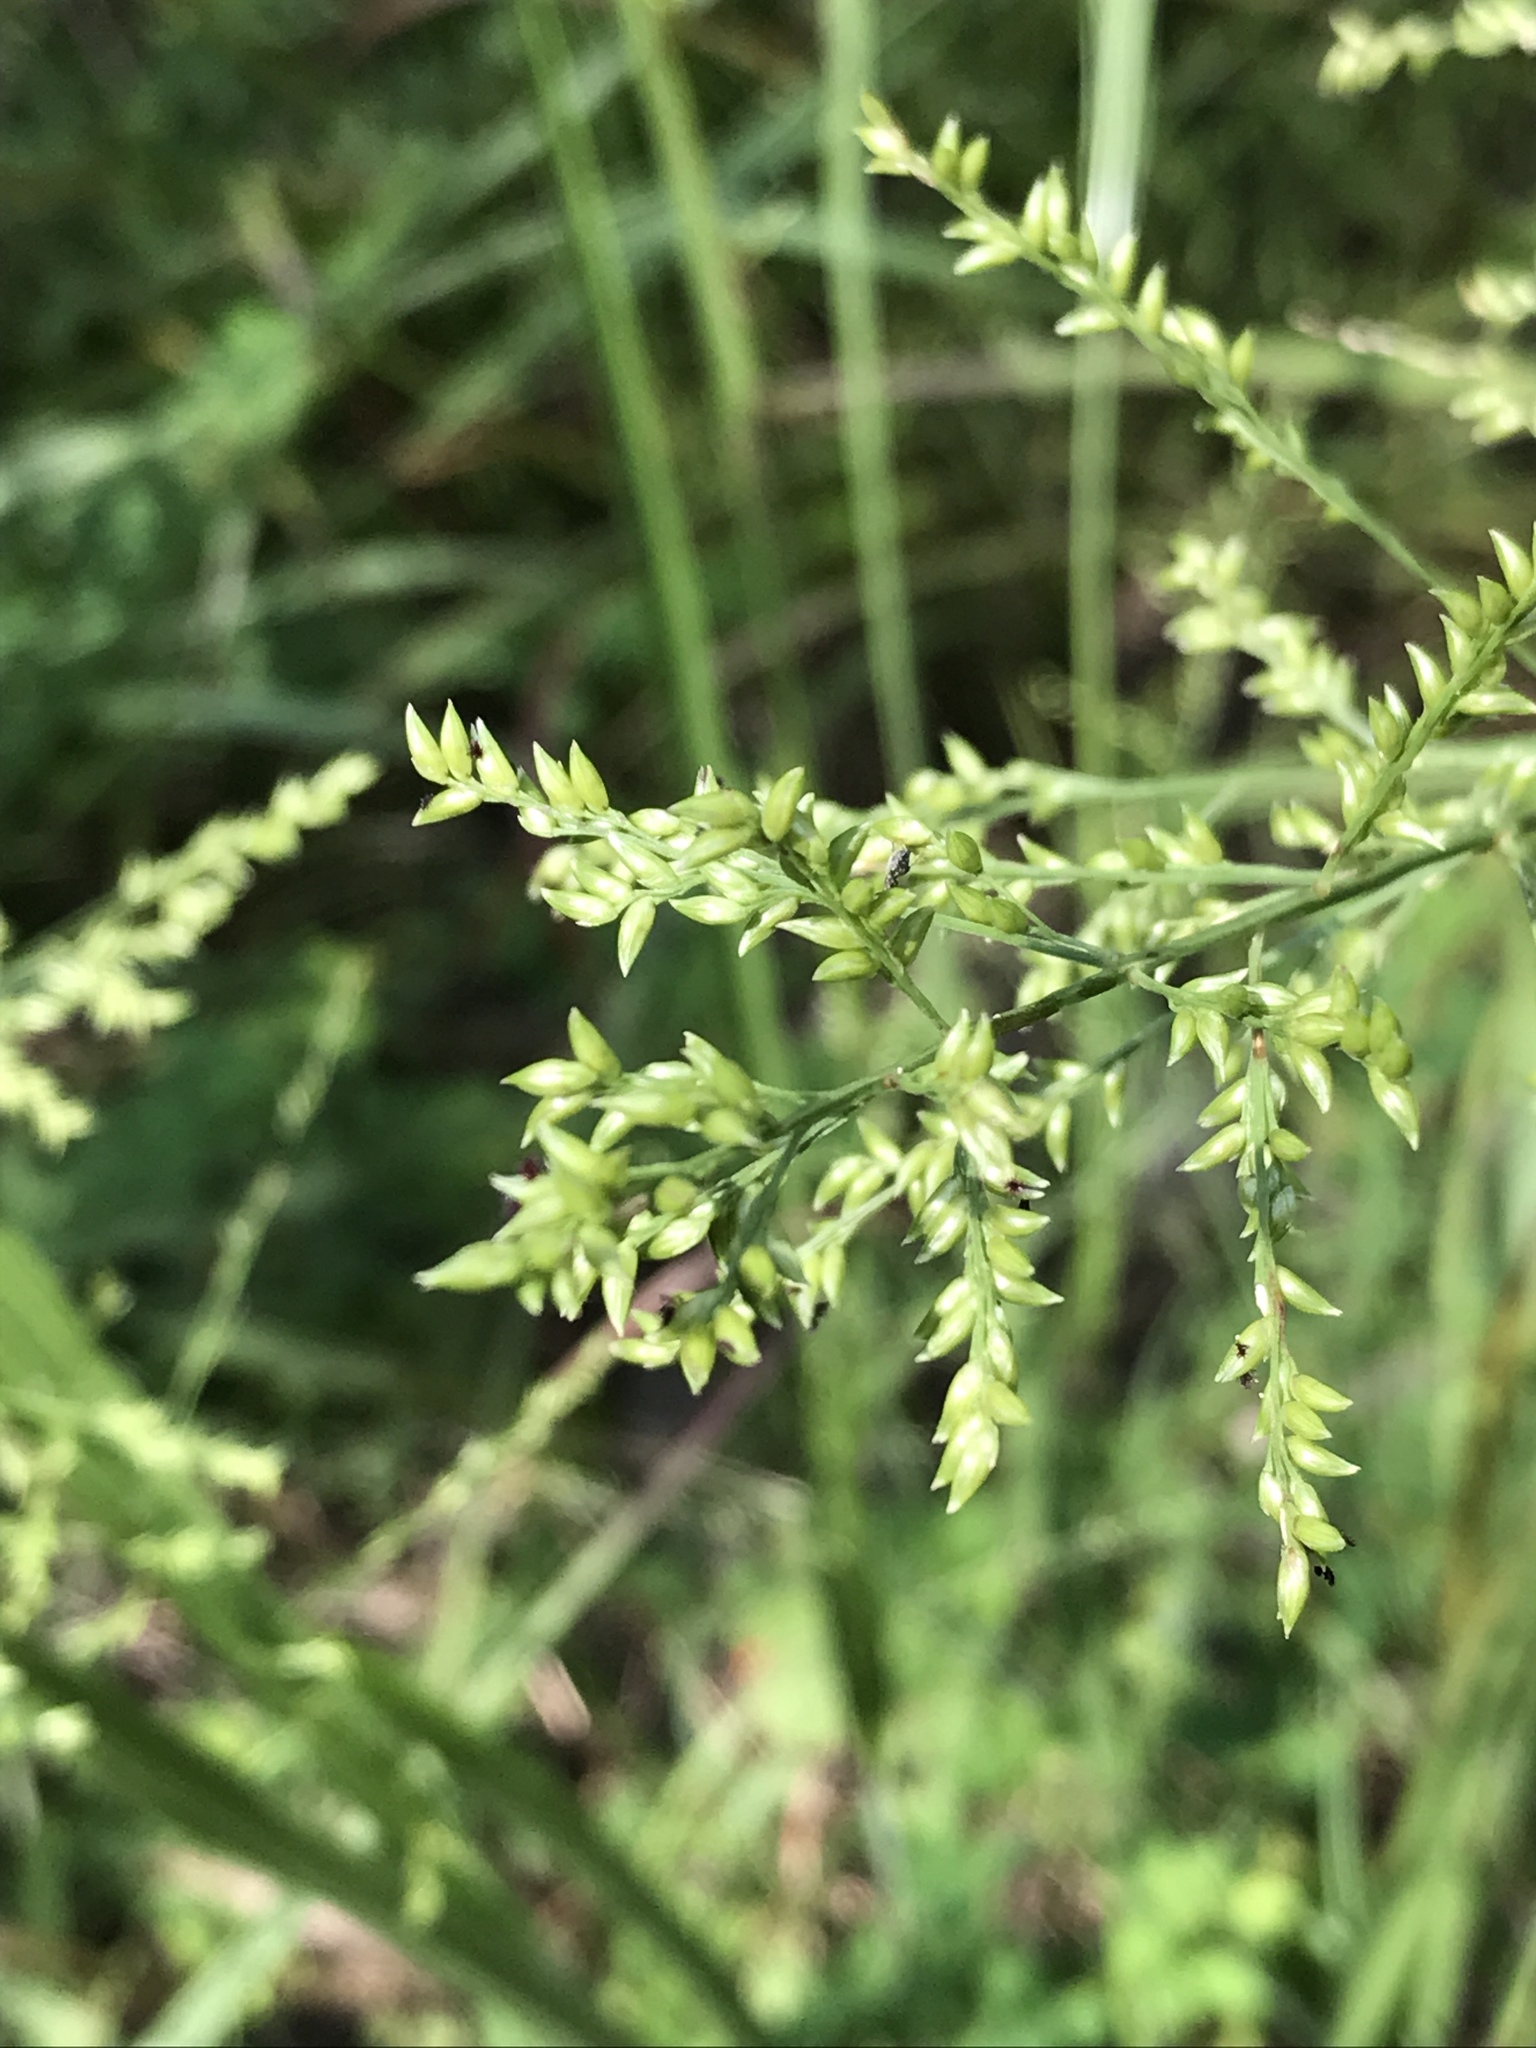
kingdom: Plantae
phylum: Tracheophyta
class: Liliopsida
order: Poales
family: Poaceae
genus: Coleataenia
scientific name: Coleataenia anceps
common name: Beaked panic grass
